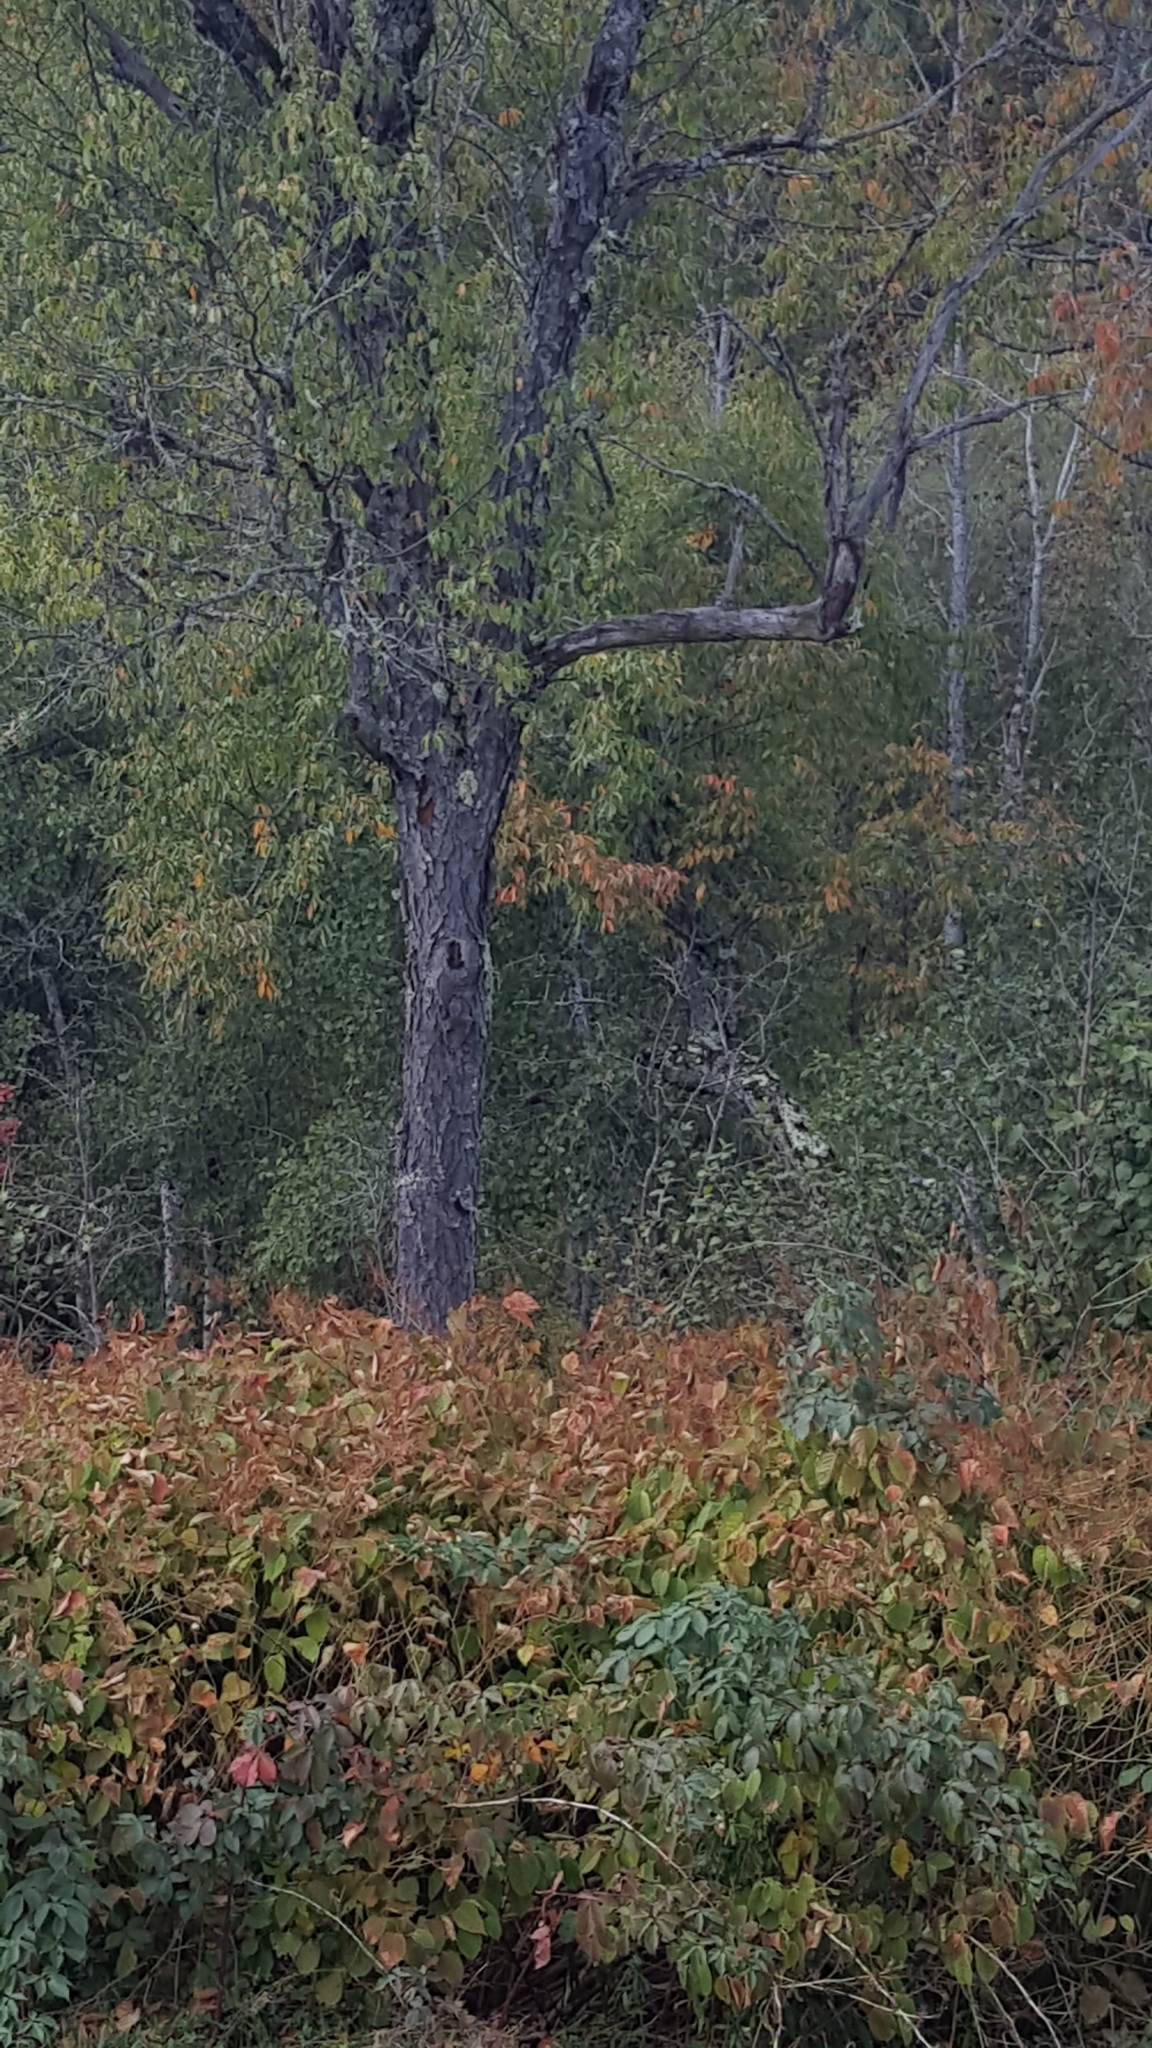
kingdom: Plantae
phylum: Tracheophyta
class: Magnoliopsida
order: Rosales
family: Rosaceae
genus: Prunus
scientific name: Prunus serotina
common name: Black cherry
